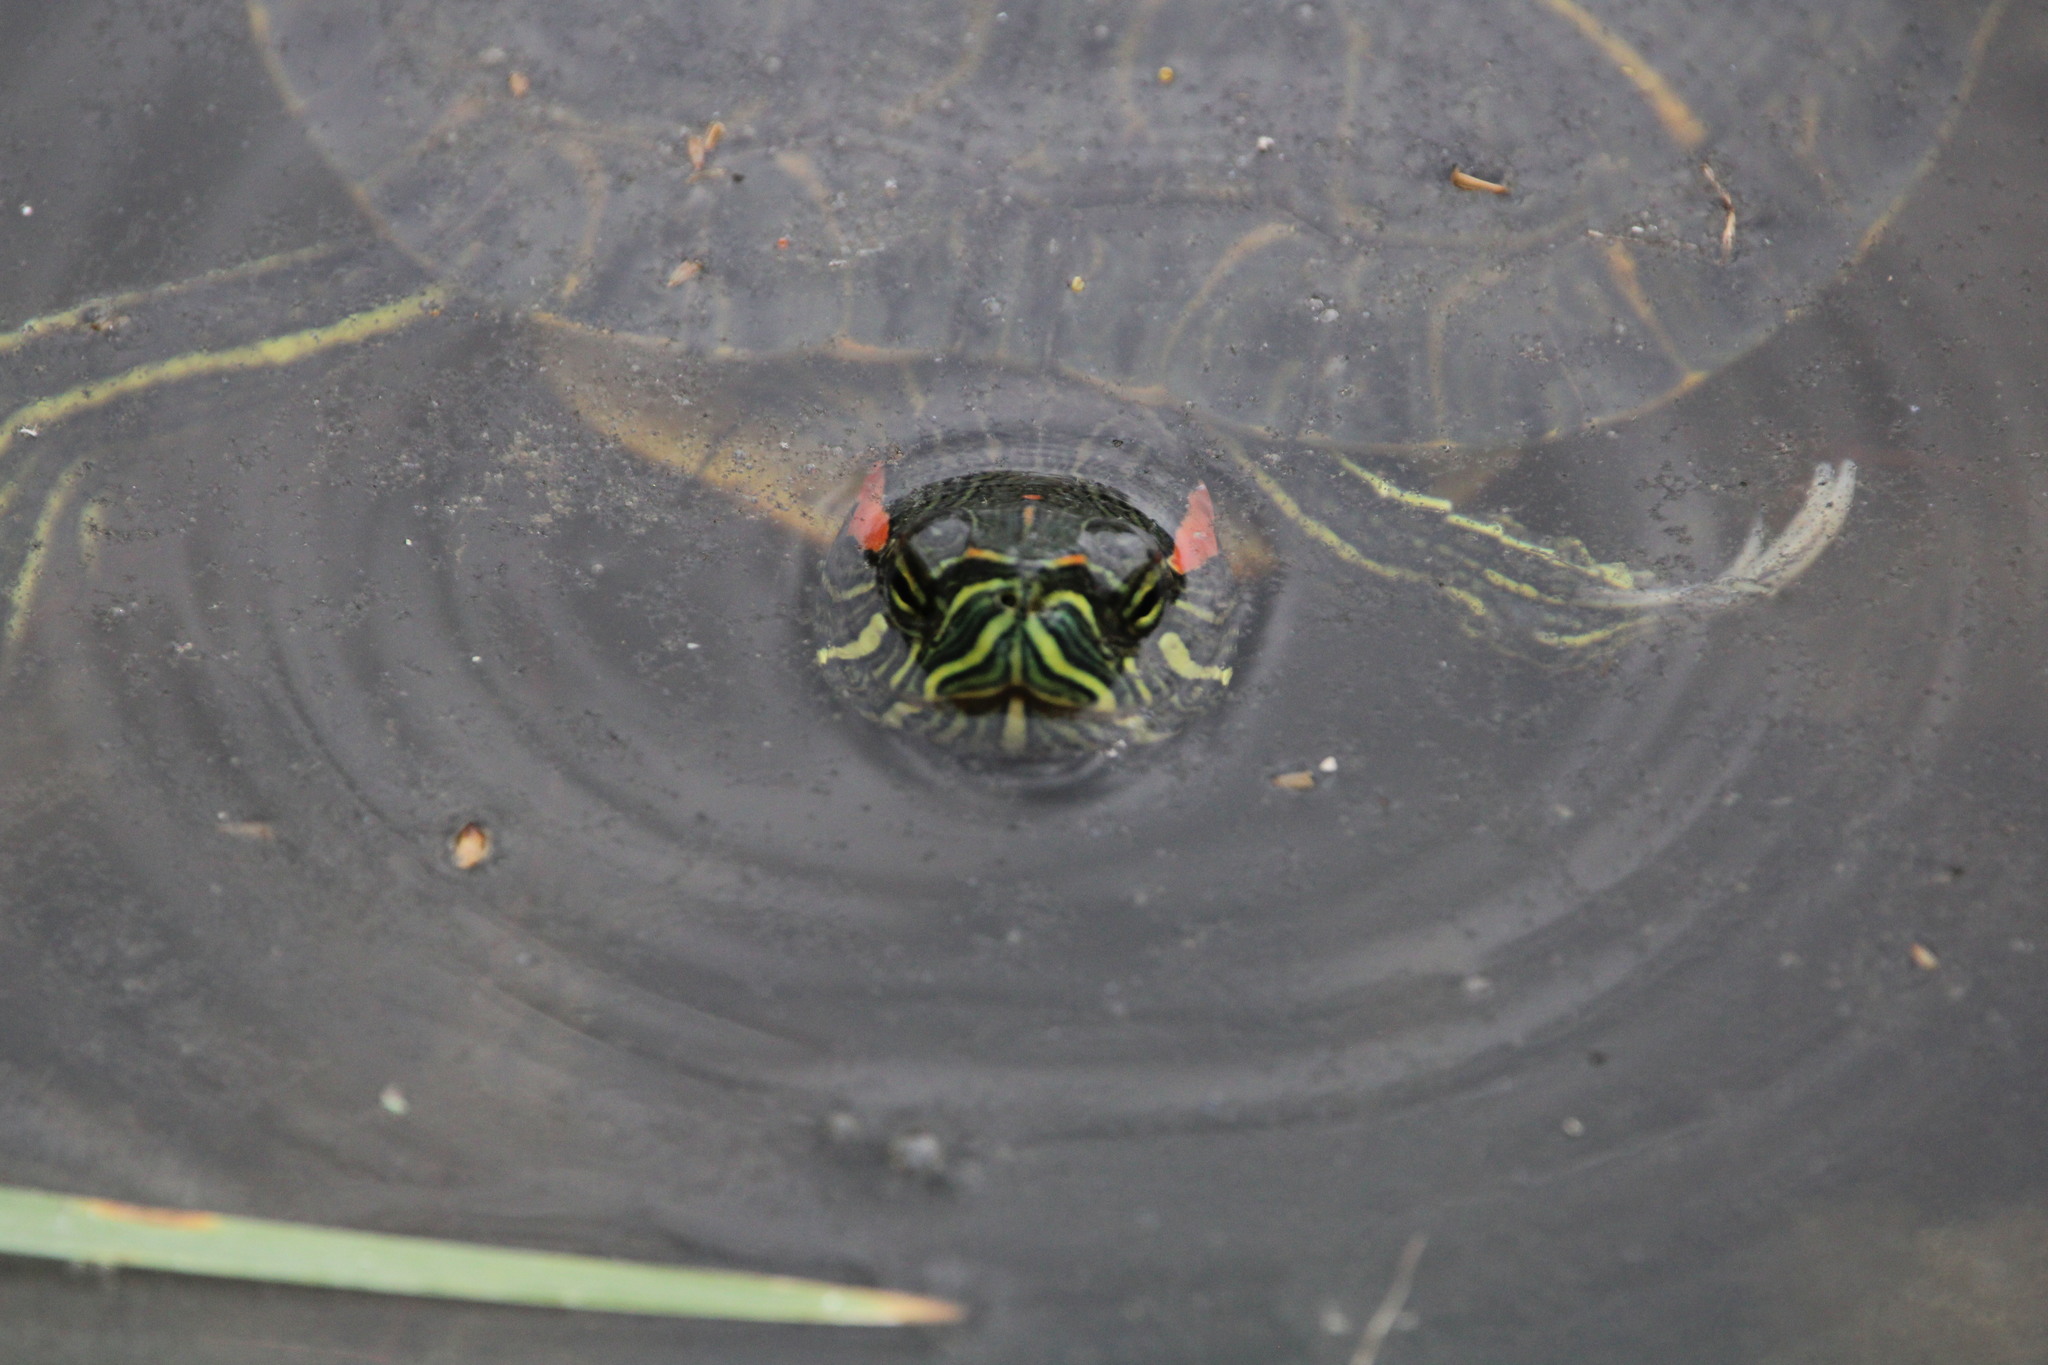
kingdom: Animalia
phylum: Chordata
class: Testudines
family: Emydidae
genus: Trachemys
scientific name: Trachemys scripta
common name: Slider
